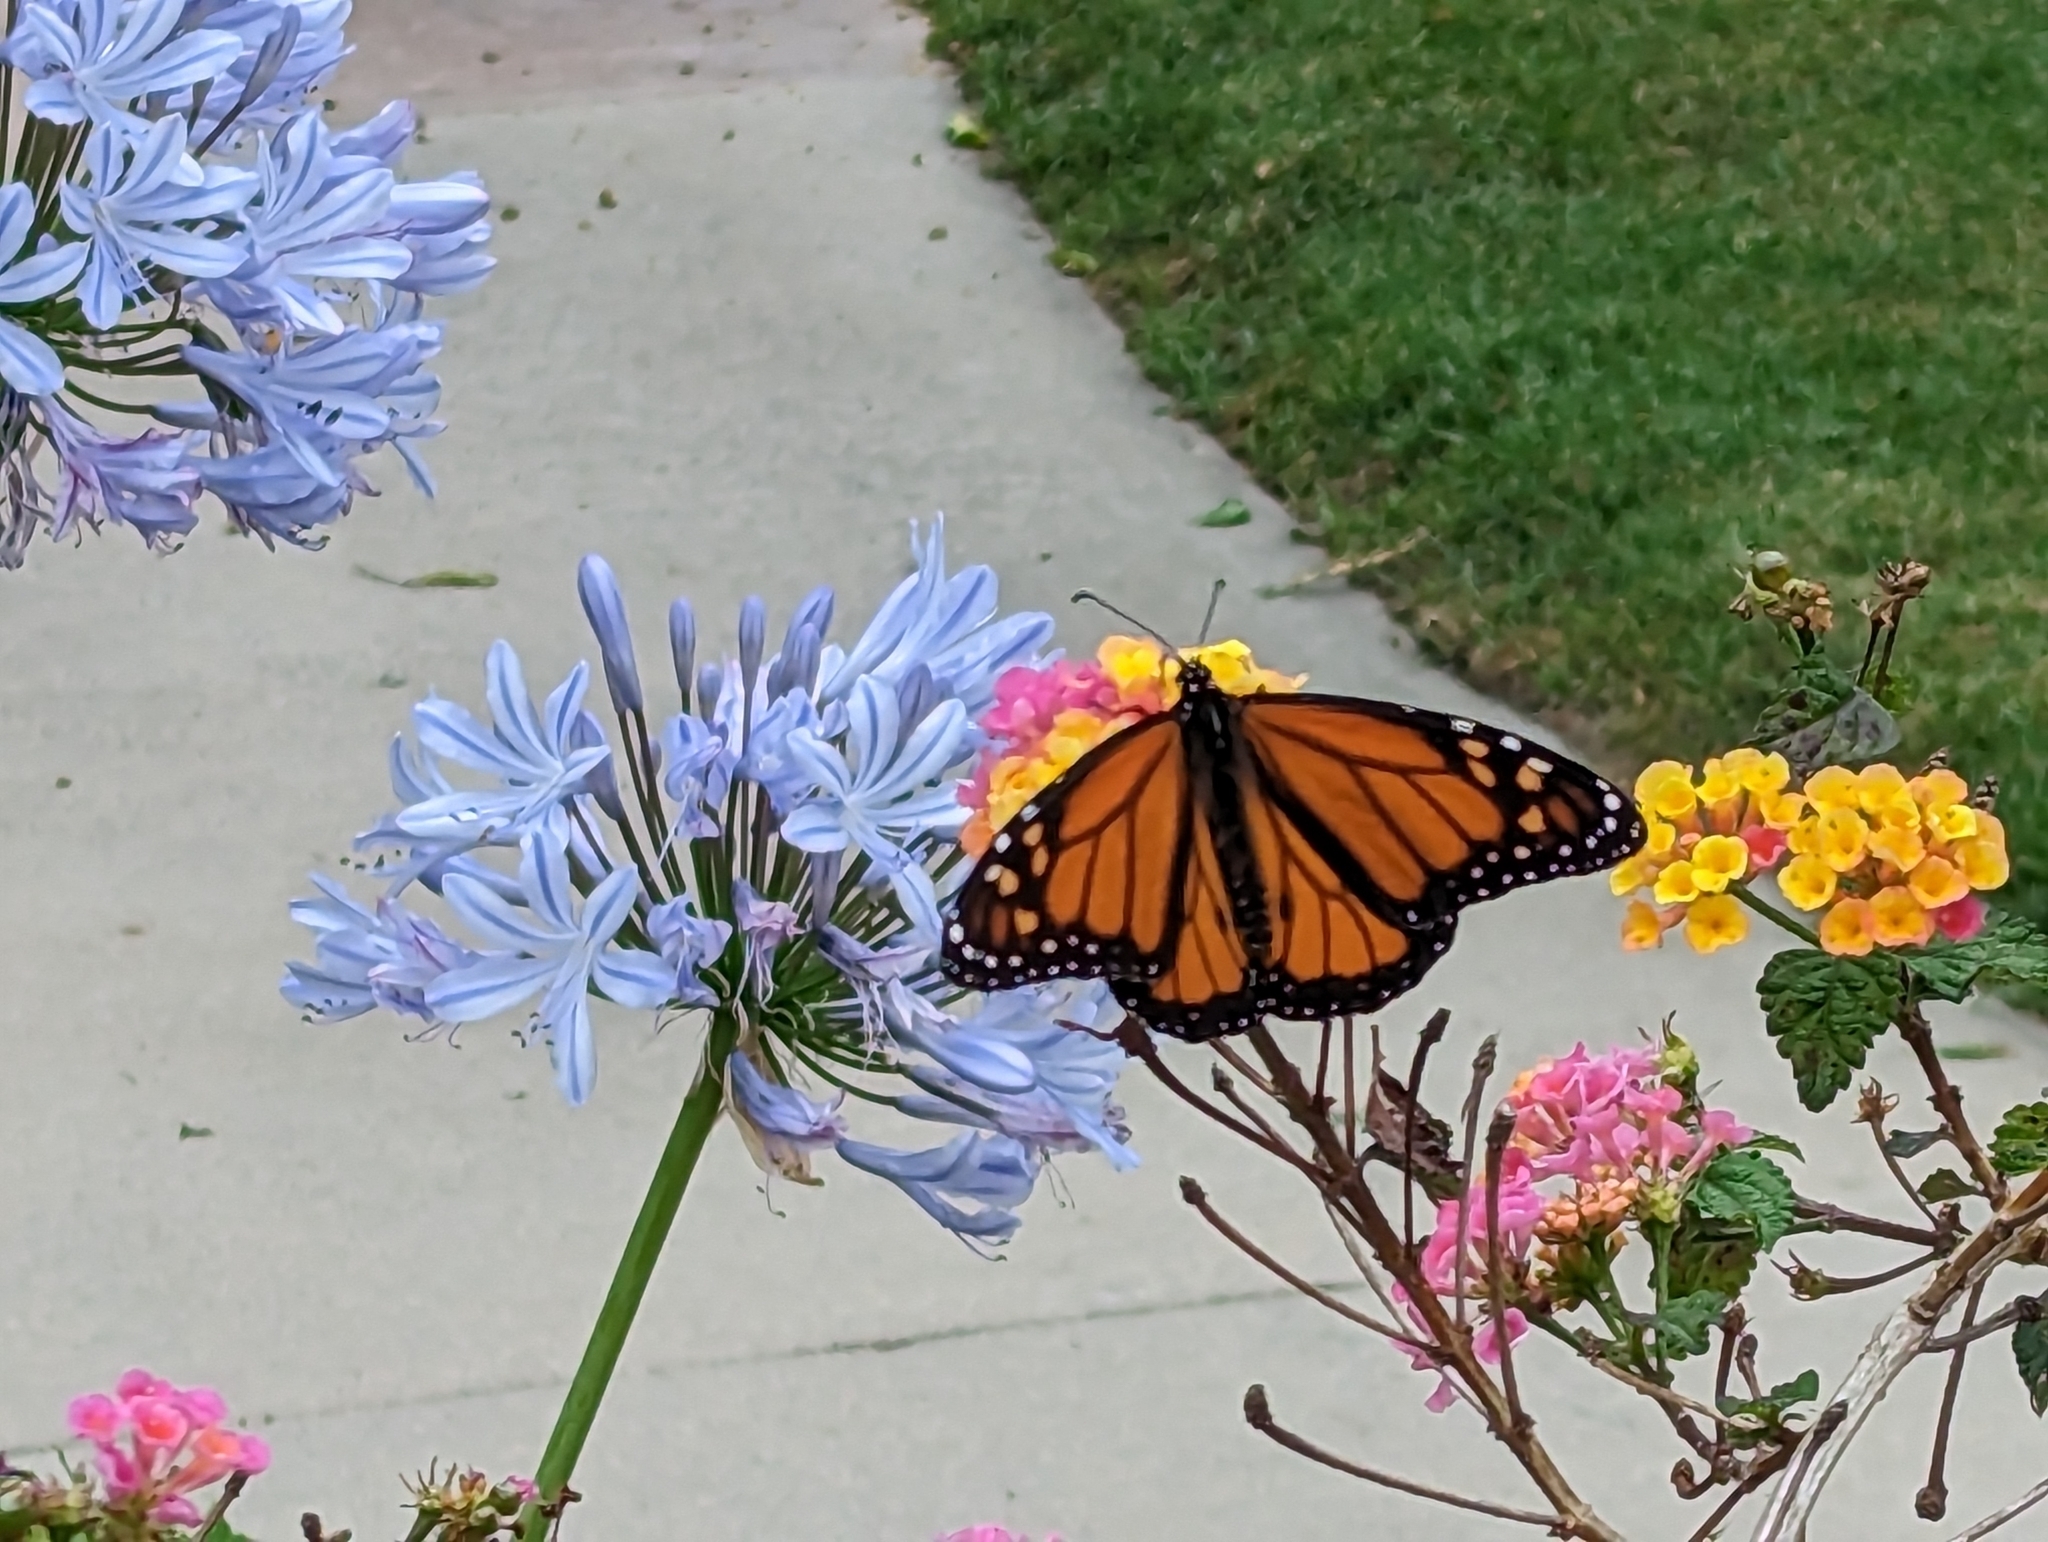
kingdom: Animalia
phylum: Arthropoda
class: Insecta
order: Lepidoptera
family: Nymphalidae
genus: Danaus
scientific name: Danaus plexippus
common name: Monarch
